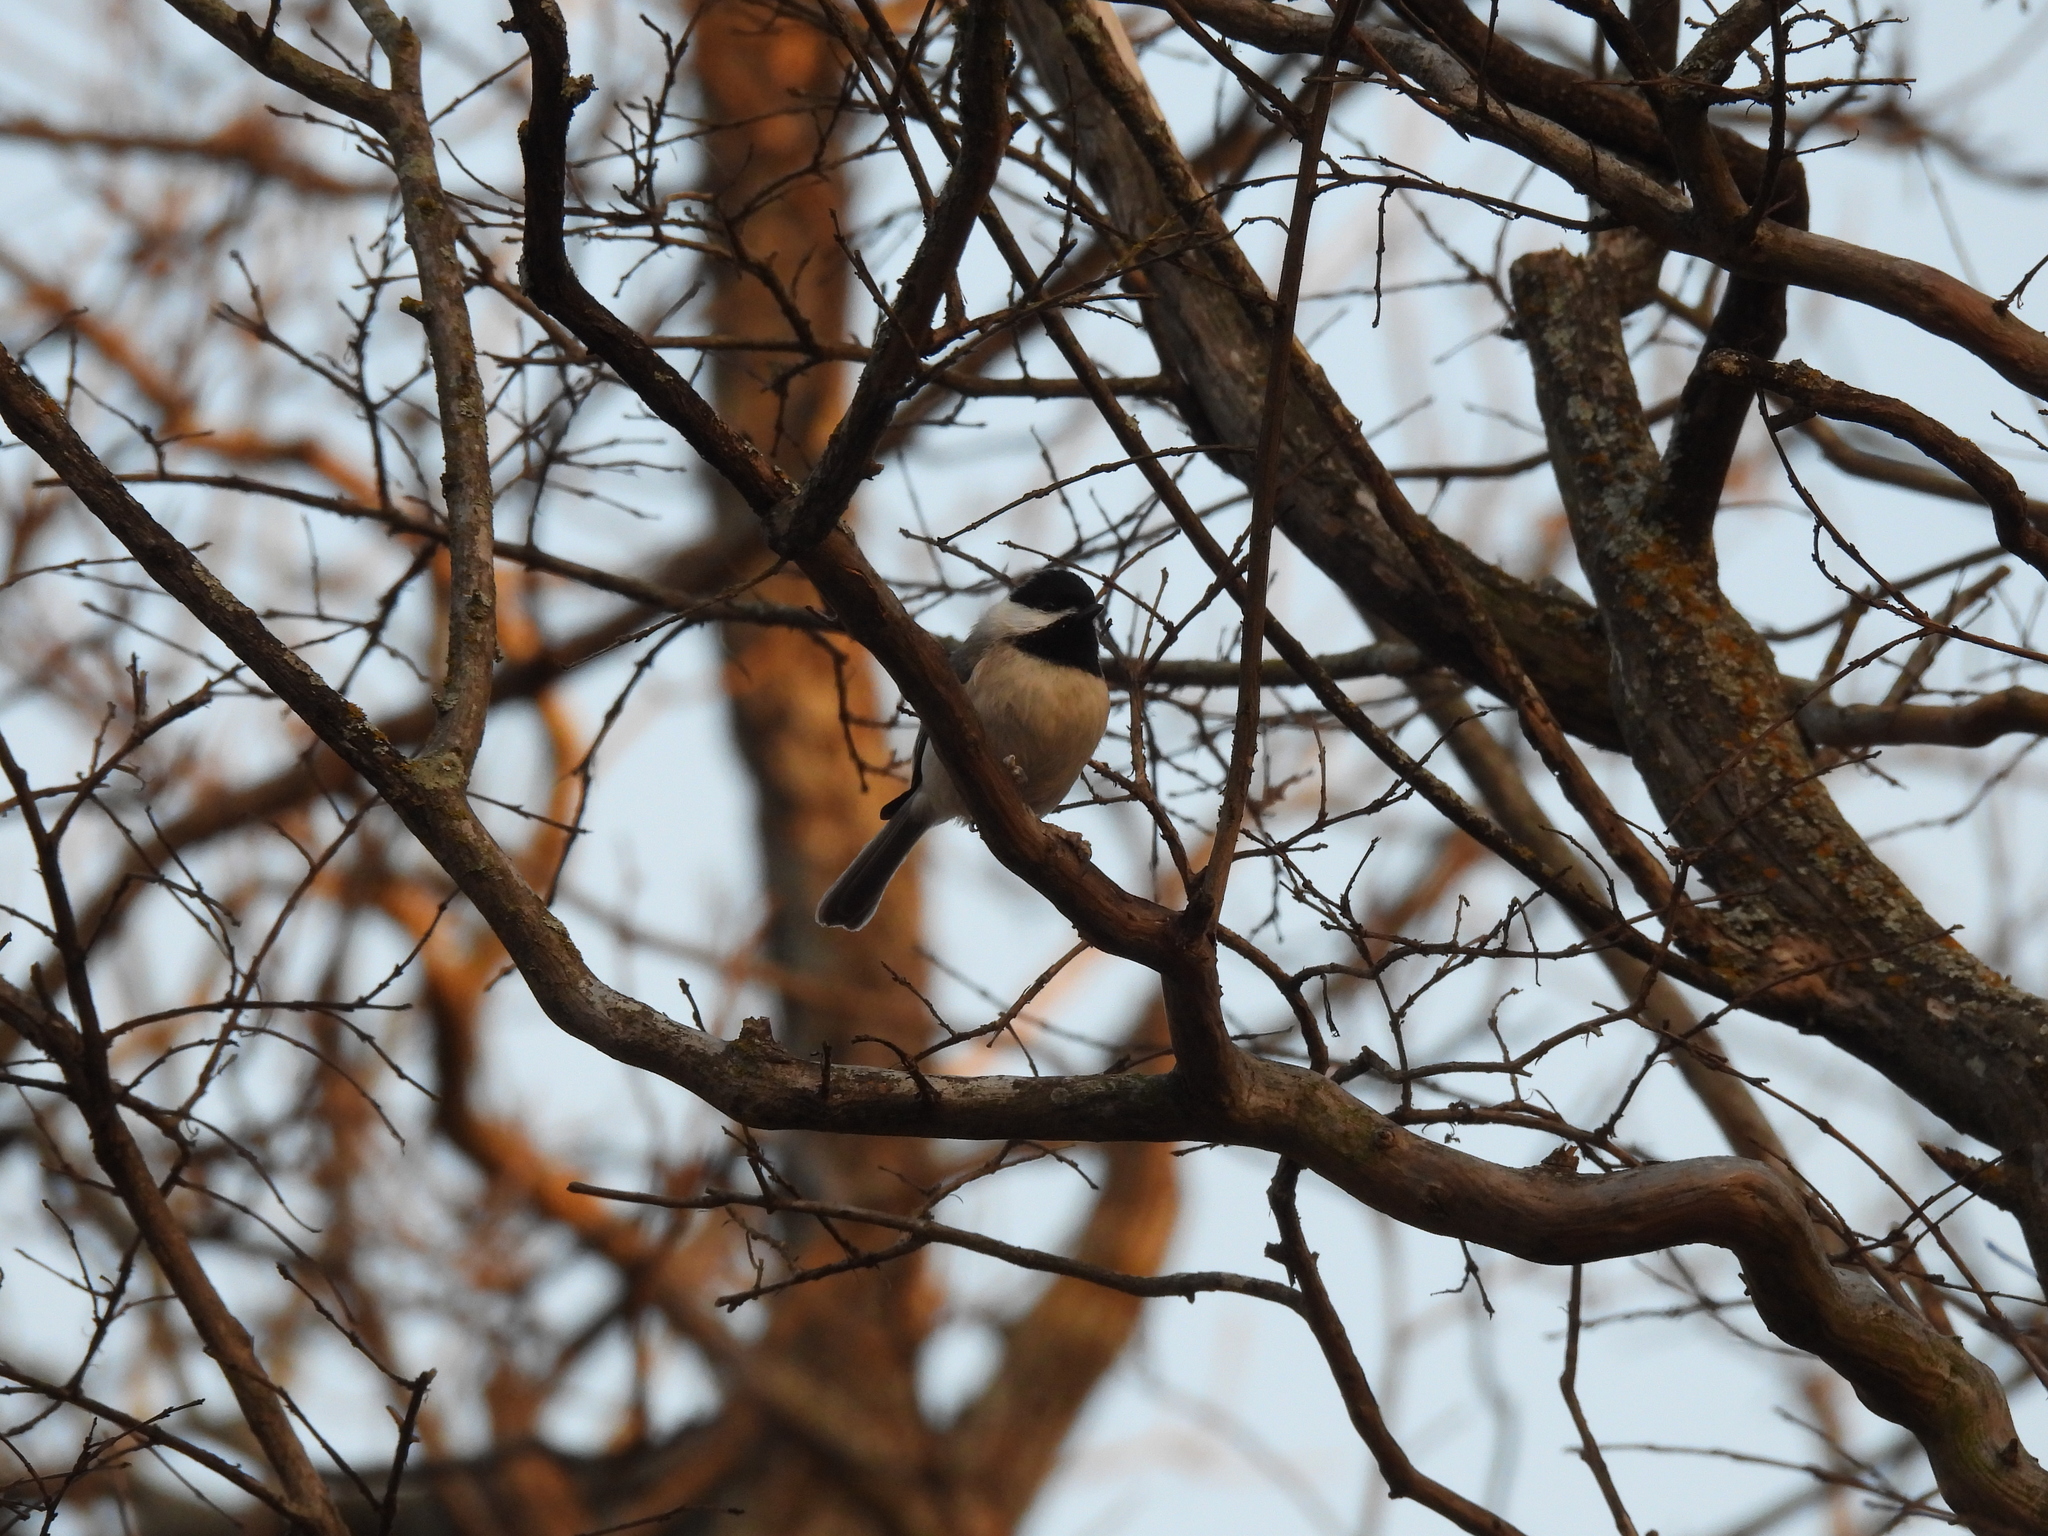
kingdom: Animalia
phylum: Chordata
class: Aves
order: Passeriformes
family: Paridae
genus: Poecile
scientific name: Poecile carolinensis
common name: Carolina chickadee
